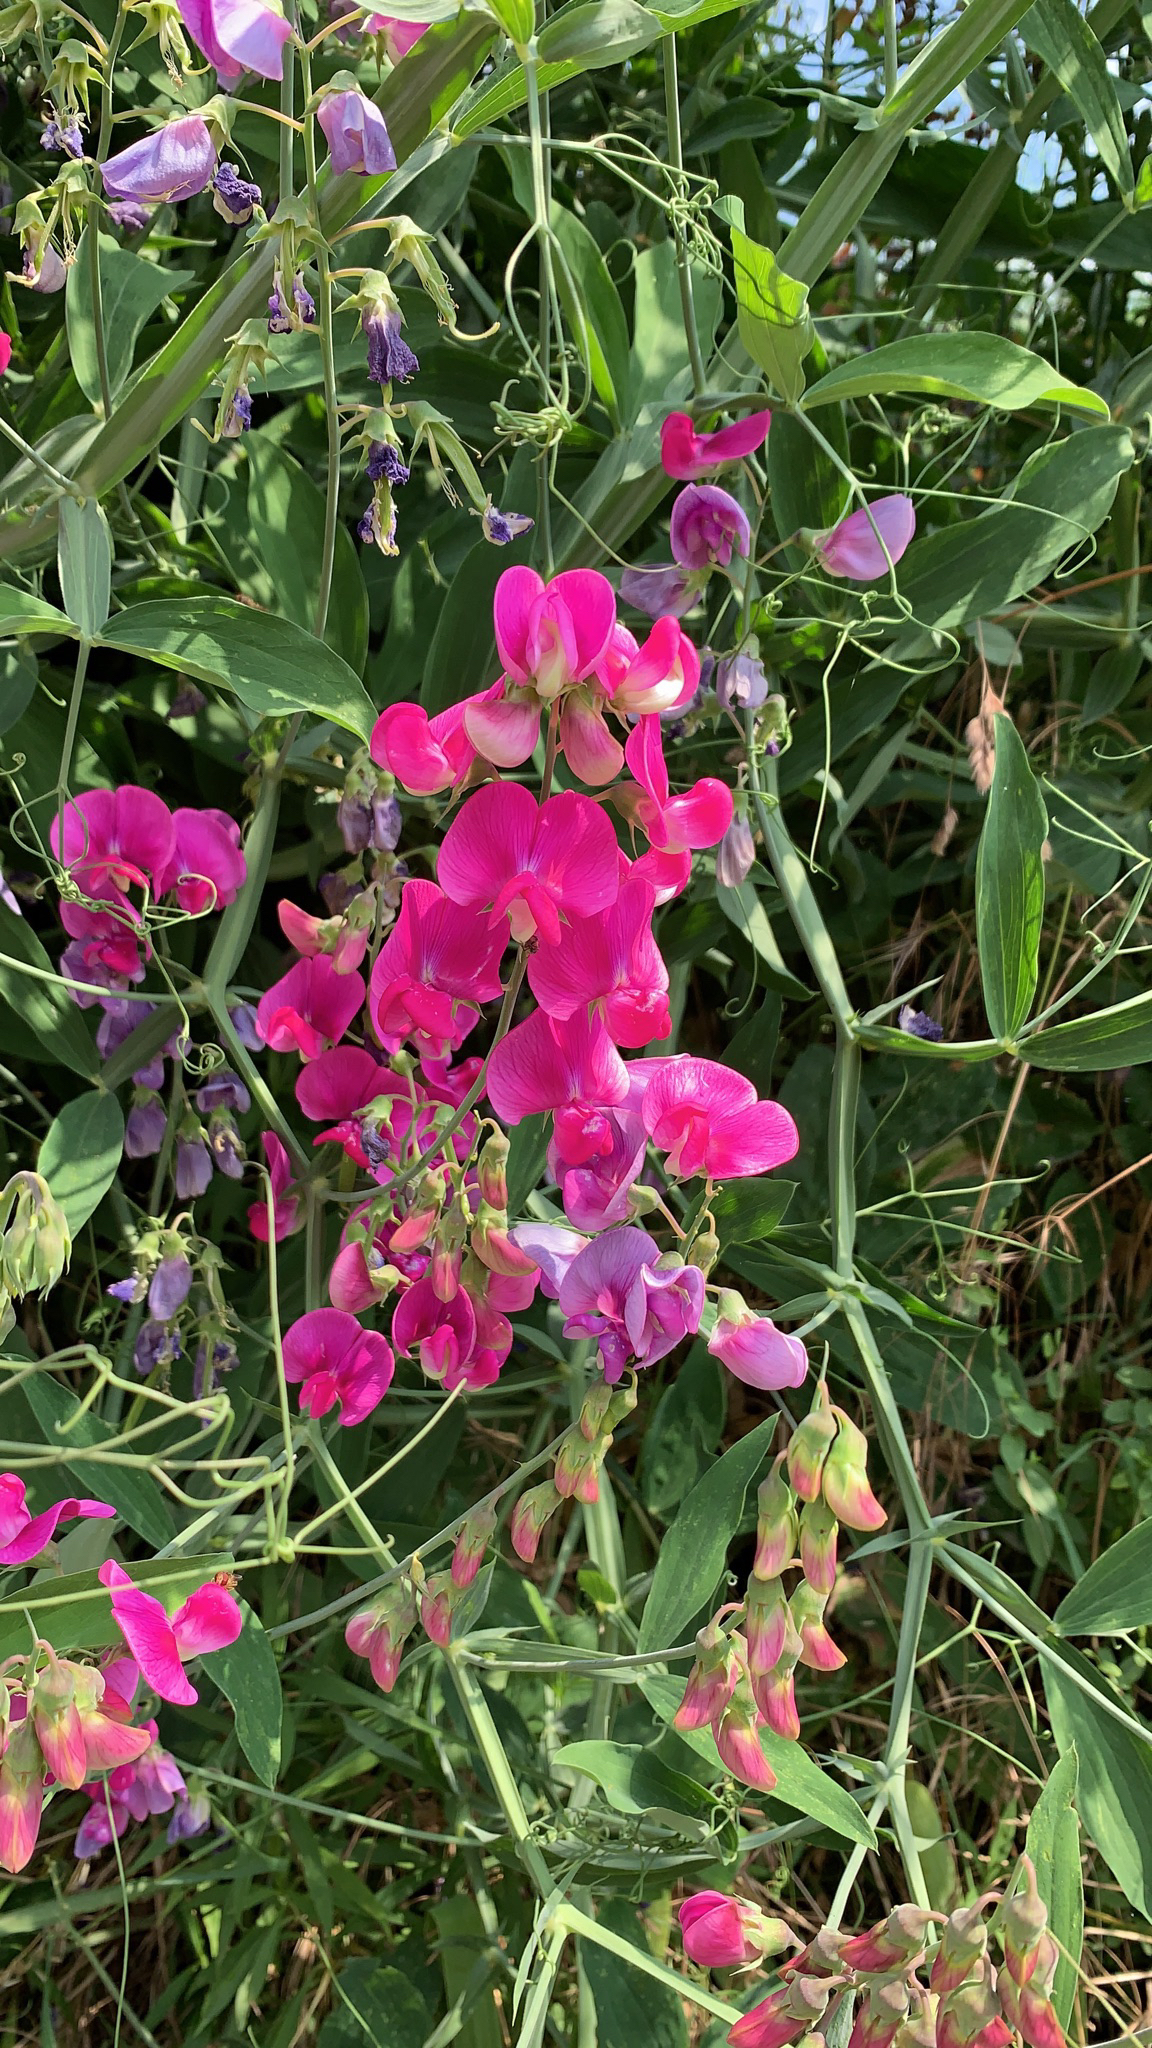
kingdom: Plantae
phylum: Tracheophyta
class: Magnoliopsida
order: Fabales
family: Fabaceae
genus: Lathyrus
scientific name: Lathyrus latifolius
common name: Perennial pea
